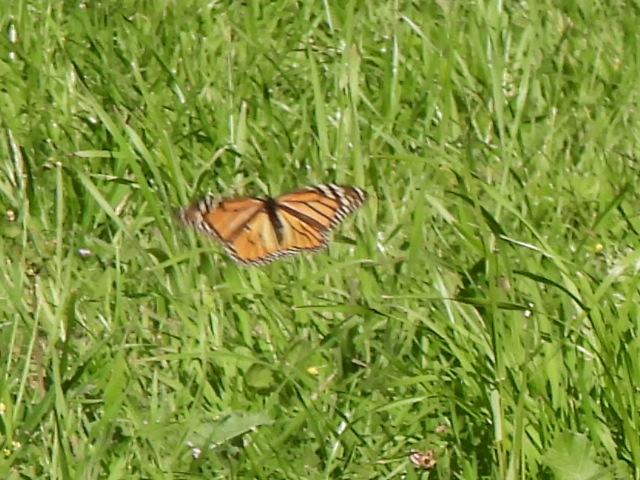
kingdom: Animalia
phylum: Arthropoda
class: Insecta
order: Lepidoptera
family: Nymphalidae
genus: Danaus
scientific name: Danaus plexippus
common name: Monarch
